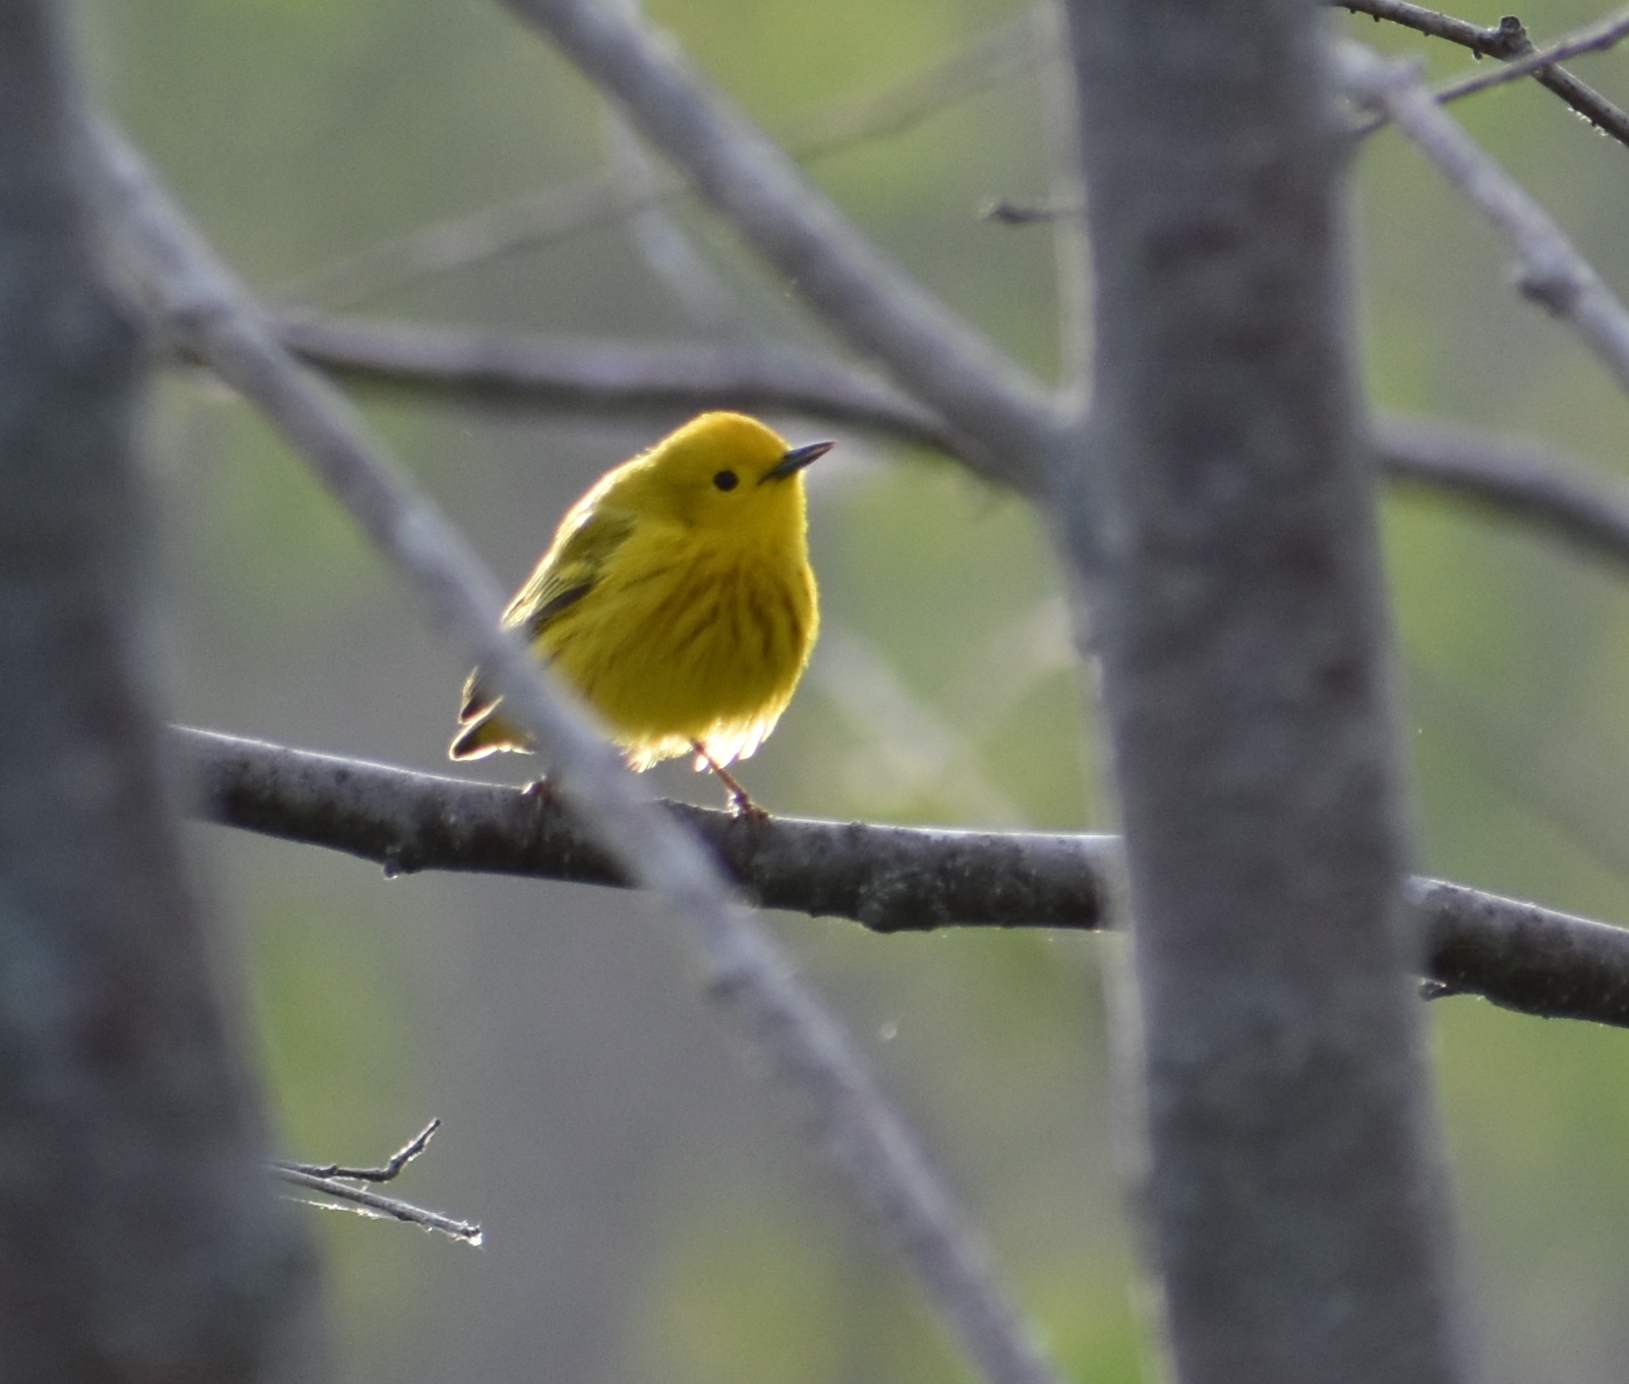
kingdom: Animalia
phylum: Chordata
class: Aves
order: Passeriformes
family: Parulidae
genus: Setophaga
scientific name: Setophaga petechia
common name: Yellow warbler
